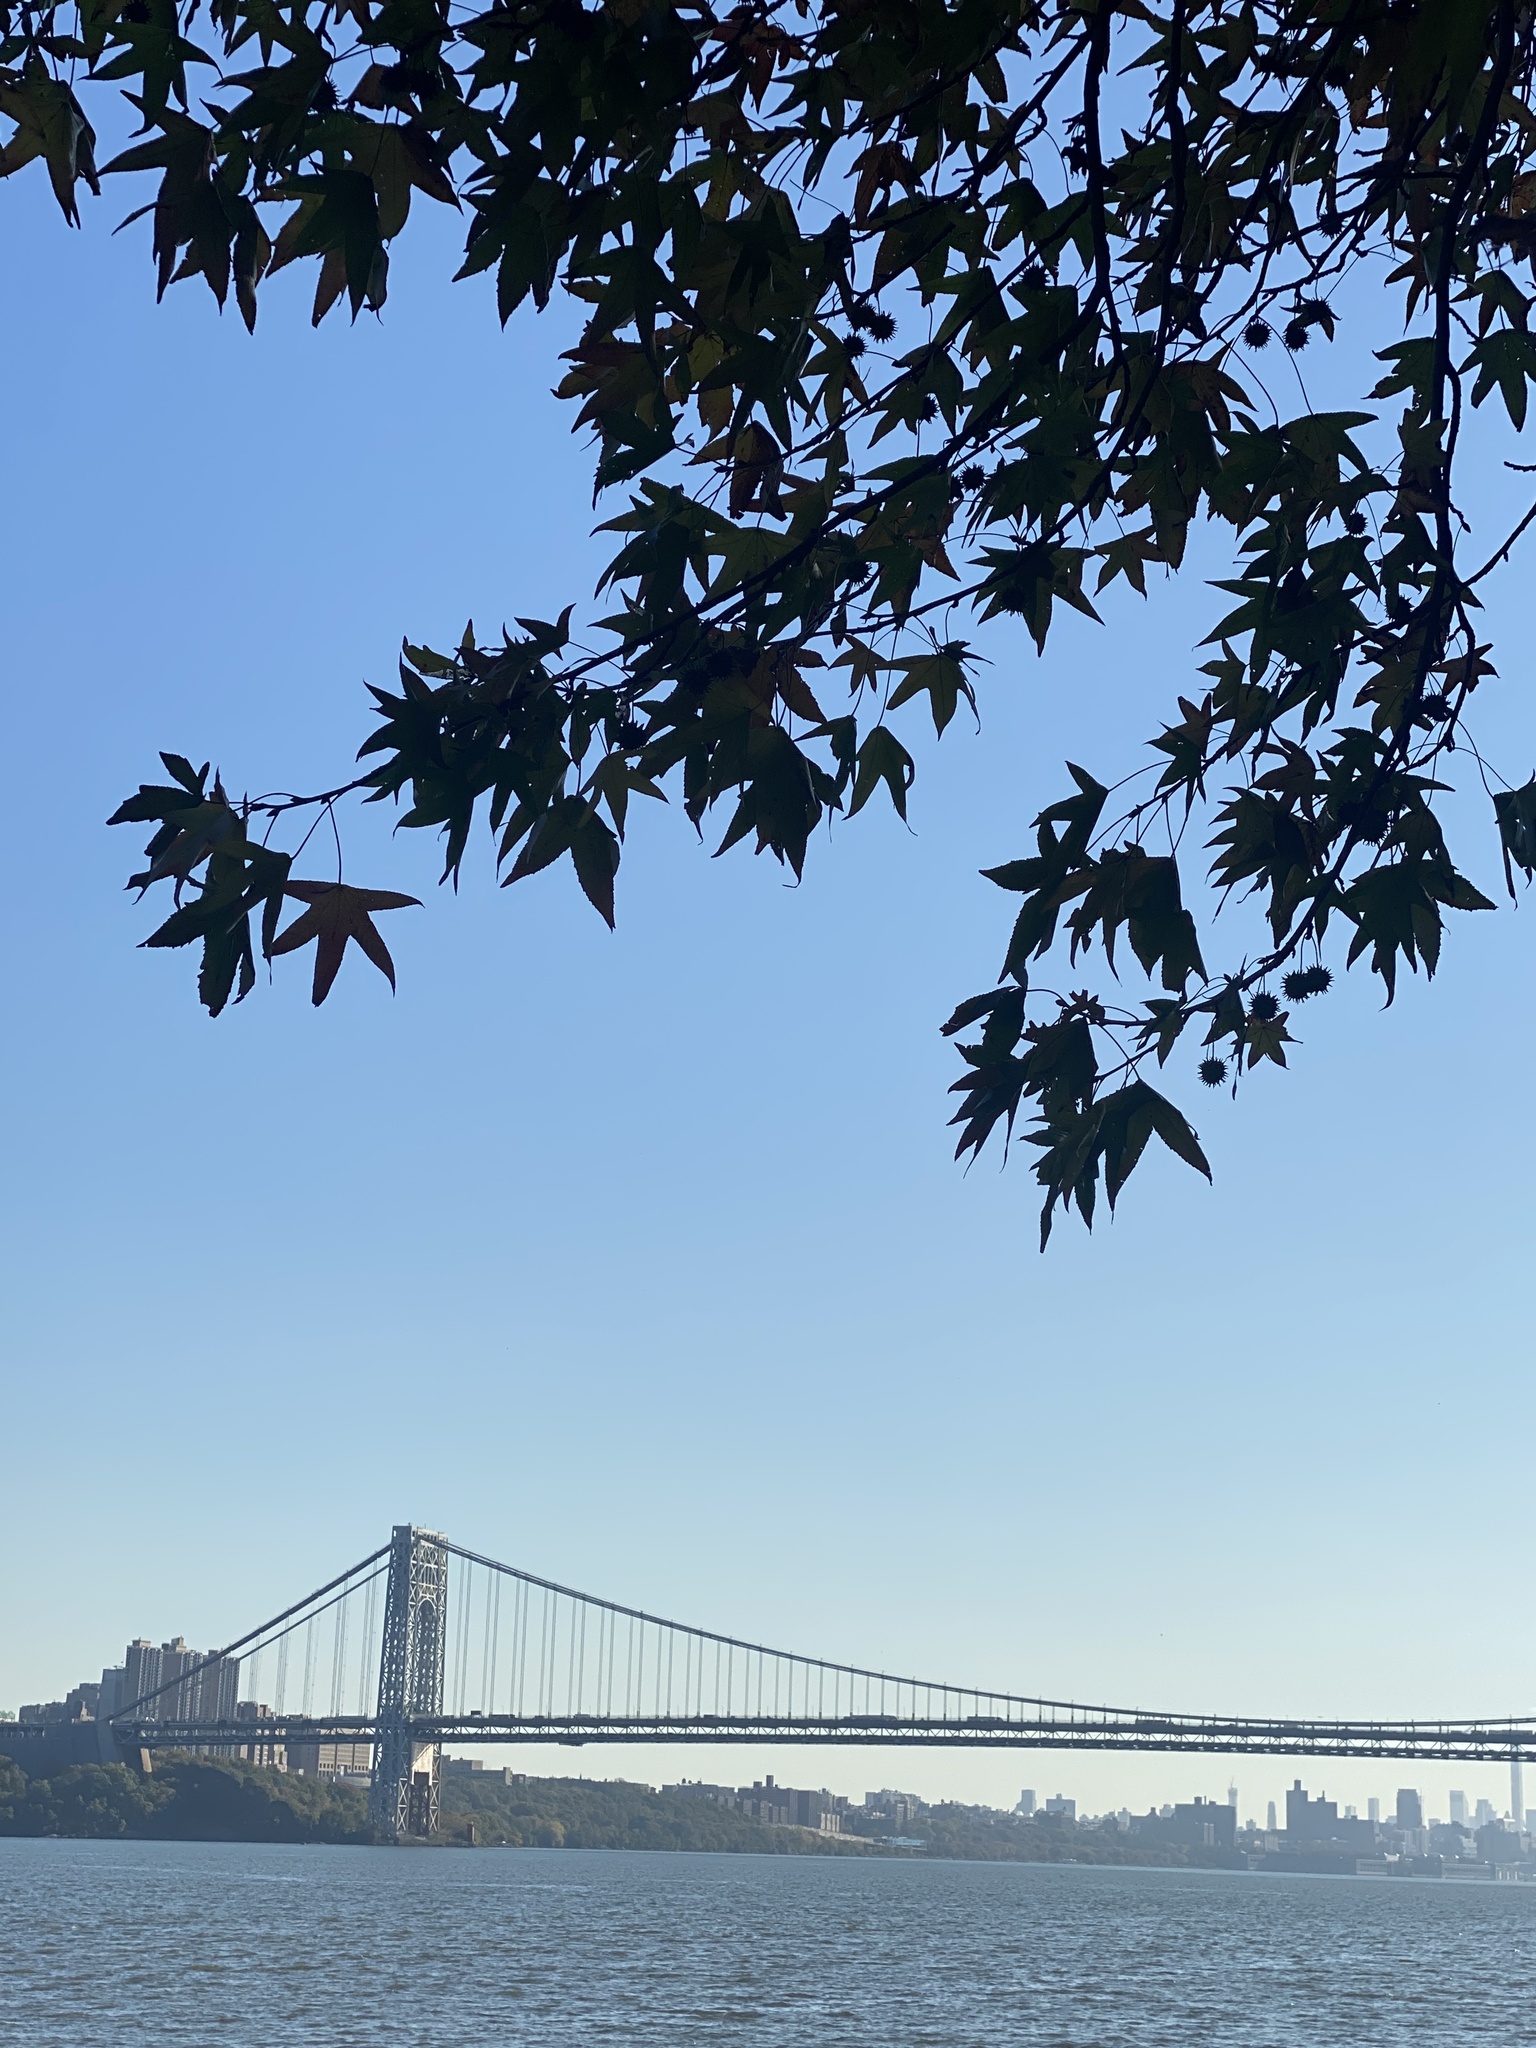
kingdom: Plantae
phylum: Tracheophyta
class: Magnoliopsida
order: Saxifragales
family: Altingiaceae
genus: Liquidambar
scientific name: Liquidambar styraciflua
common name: Sweet gum
